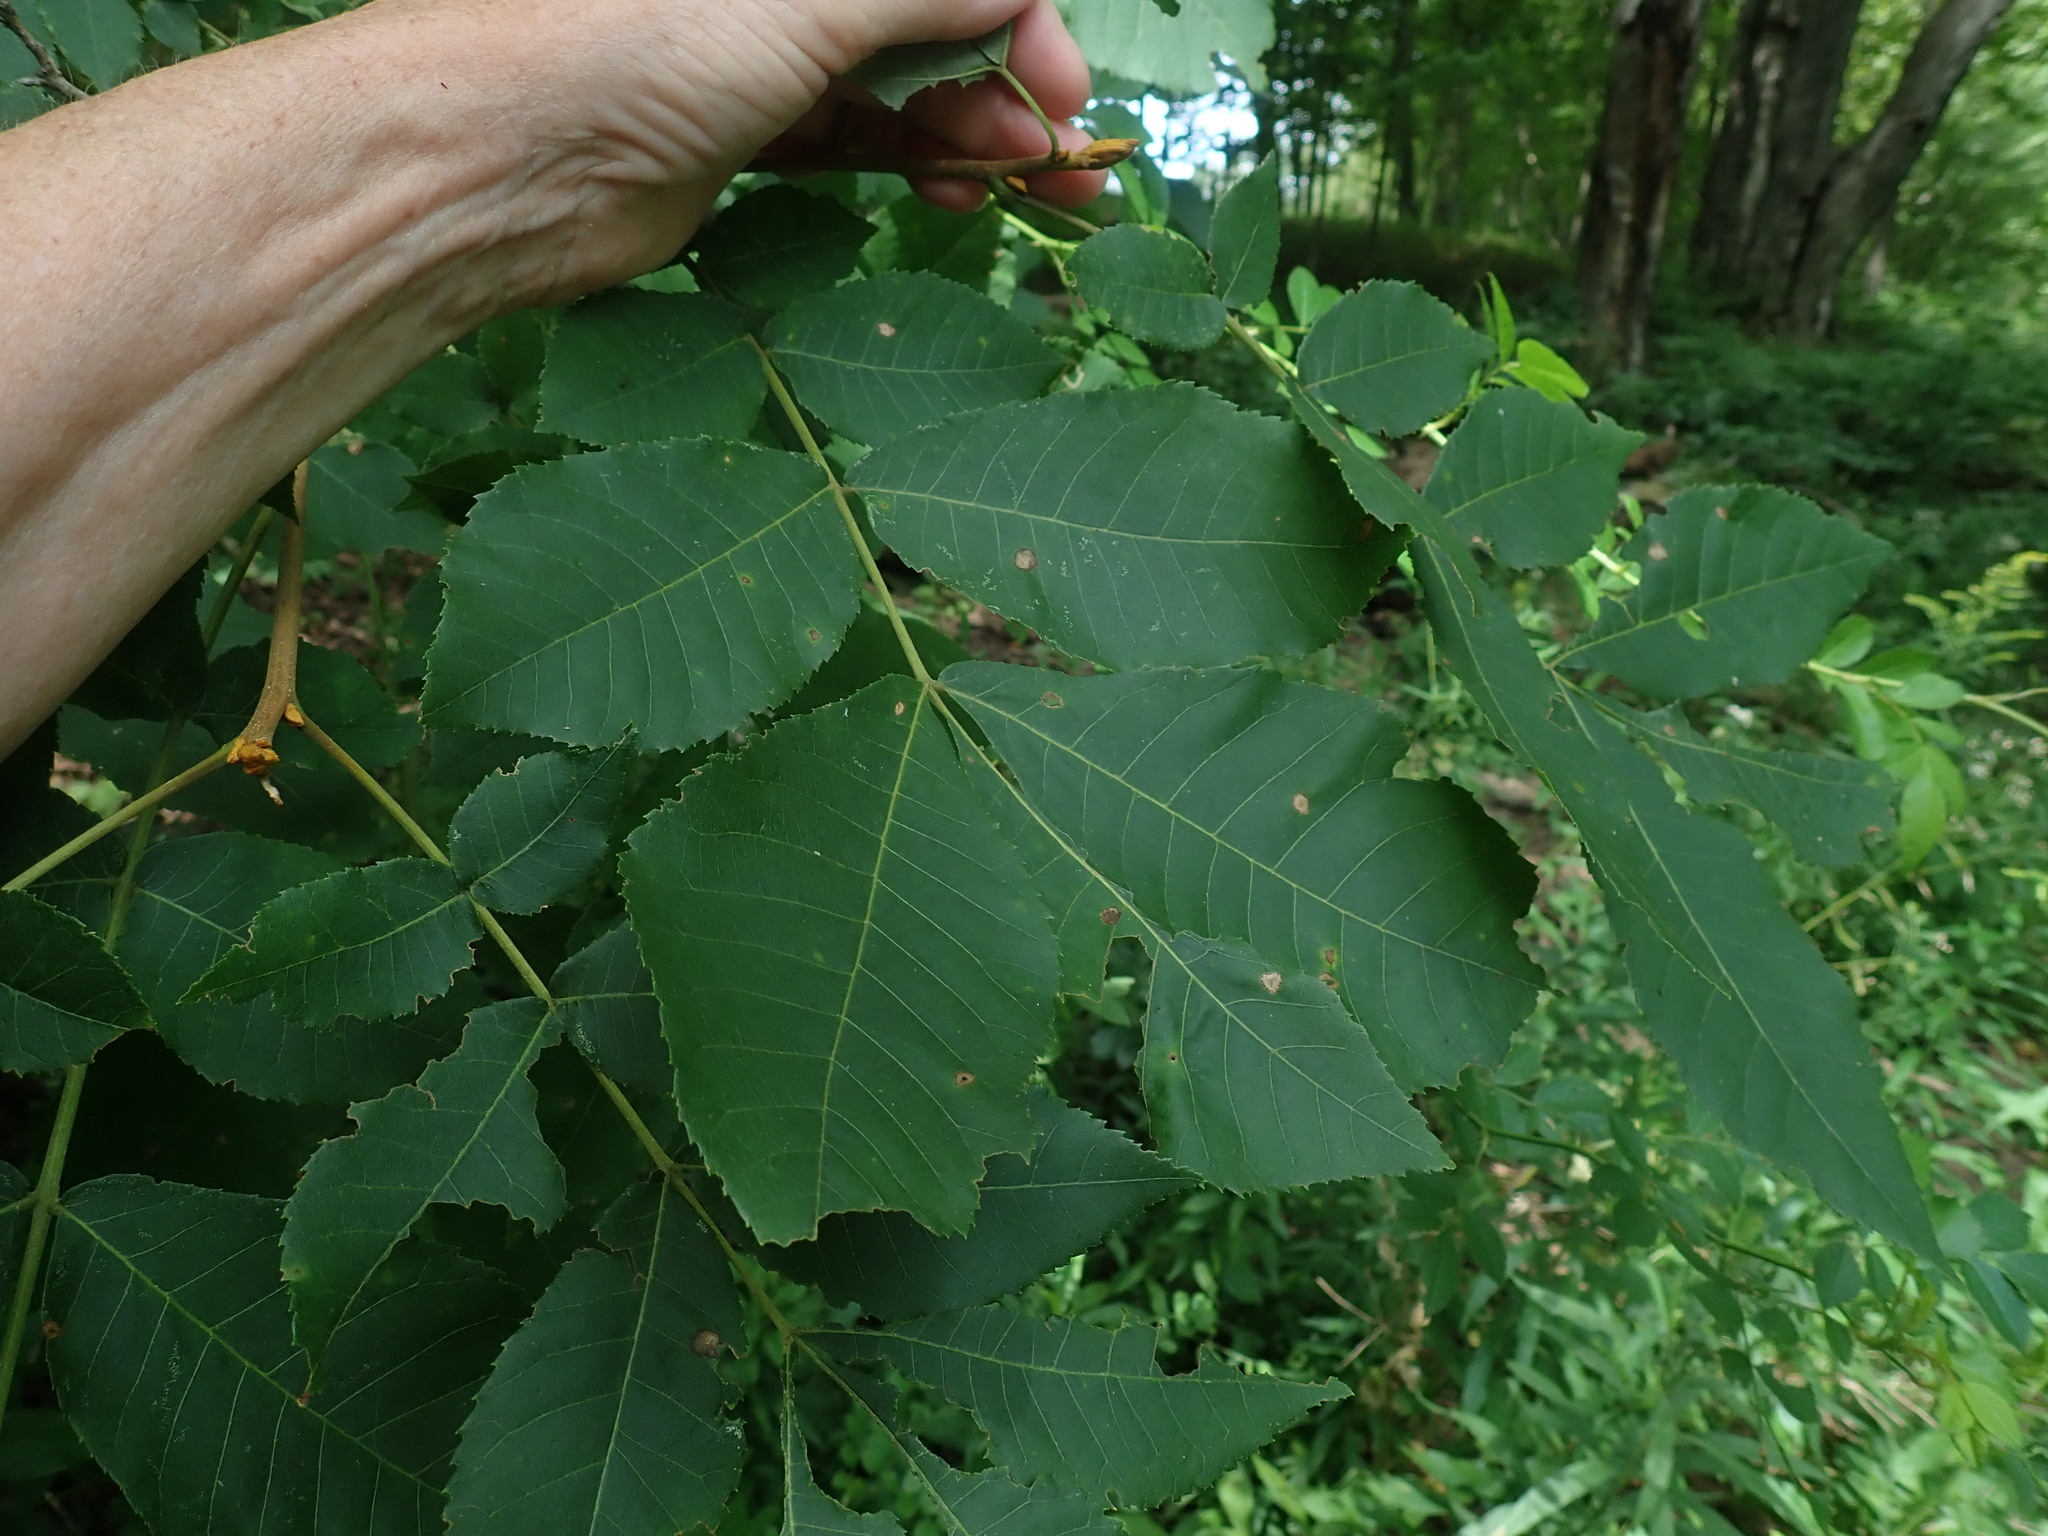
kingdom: Plantae
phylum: Tracheophyta
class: Magnoliopsida
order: Fagales
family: Juglandaceae
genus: Carya
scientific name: Carya cordiformis
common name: Bitternut hickory
